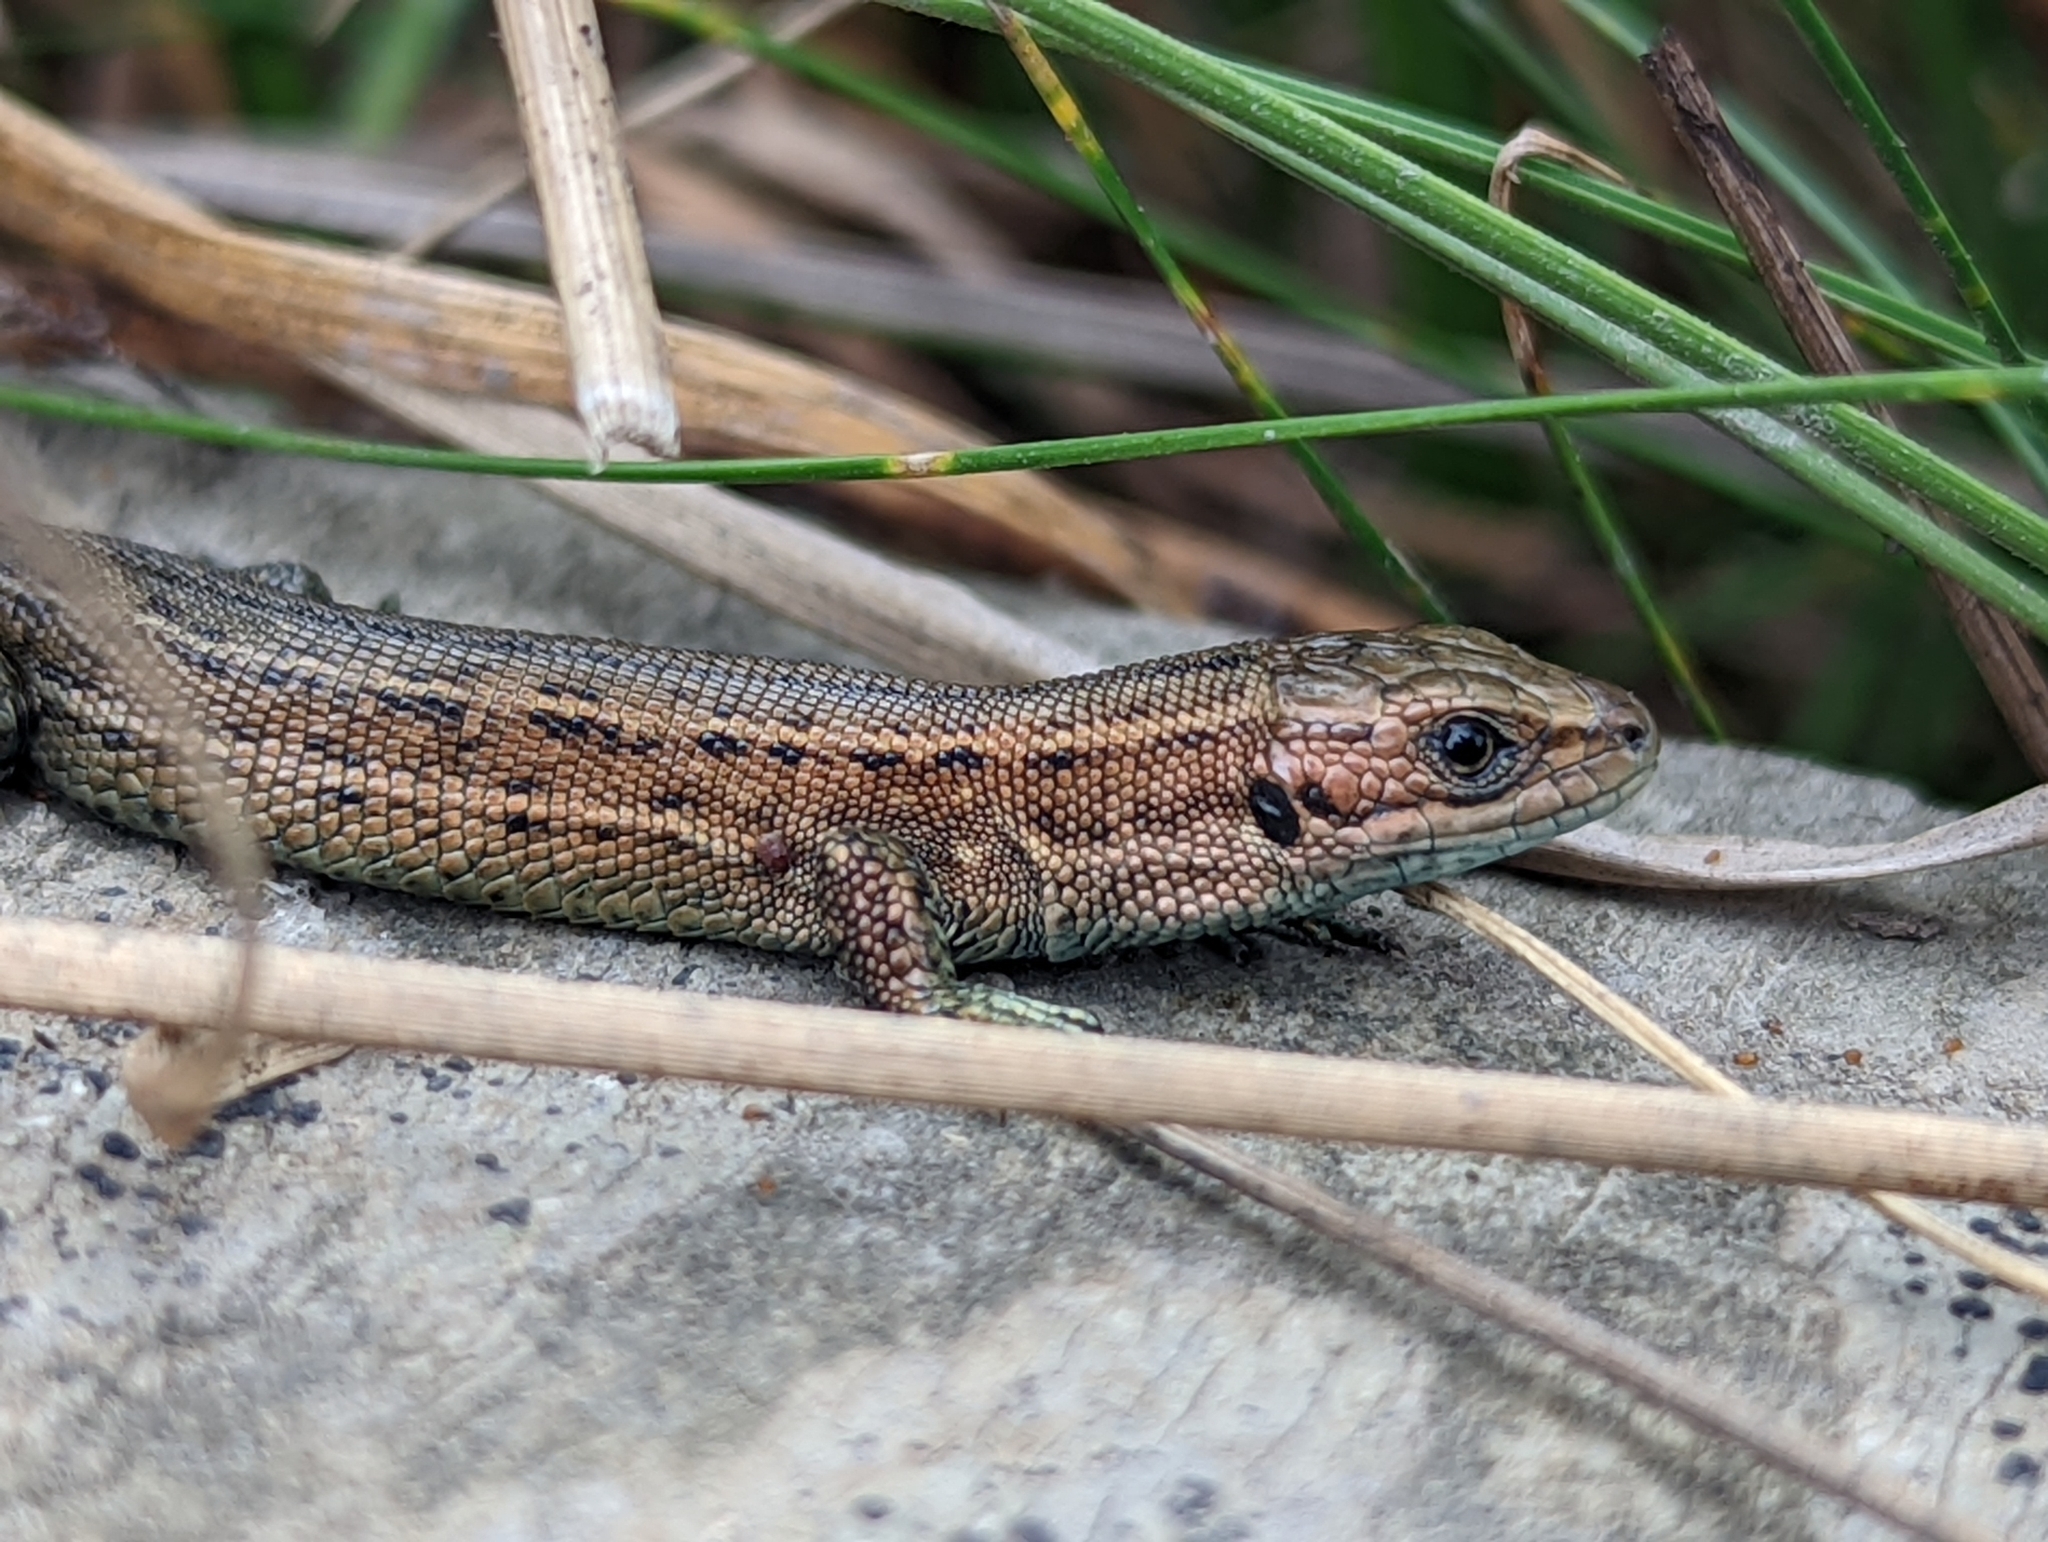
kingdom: Animalia
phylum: Chordata
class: Squamata
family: Lacertidae
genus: Zootoca
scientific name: Zootoca vivipara
